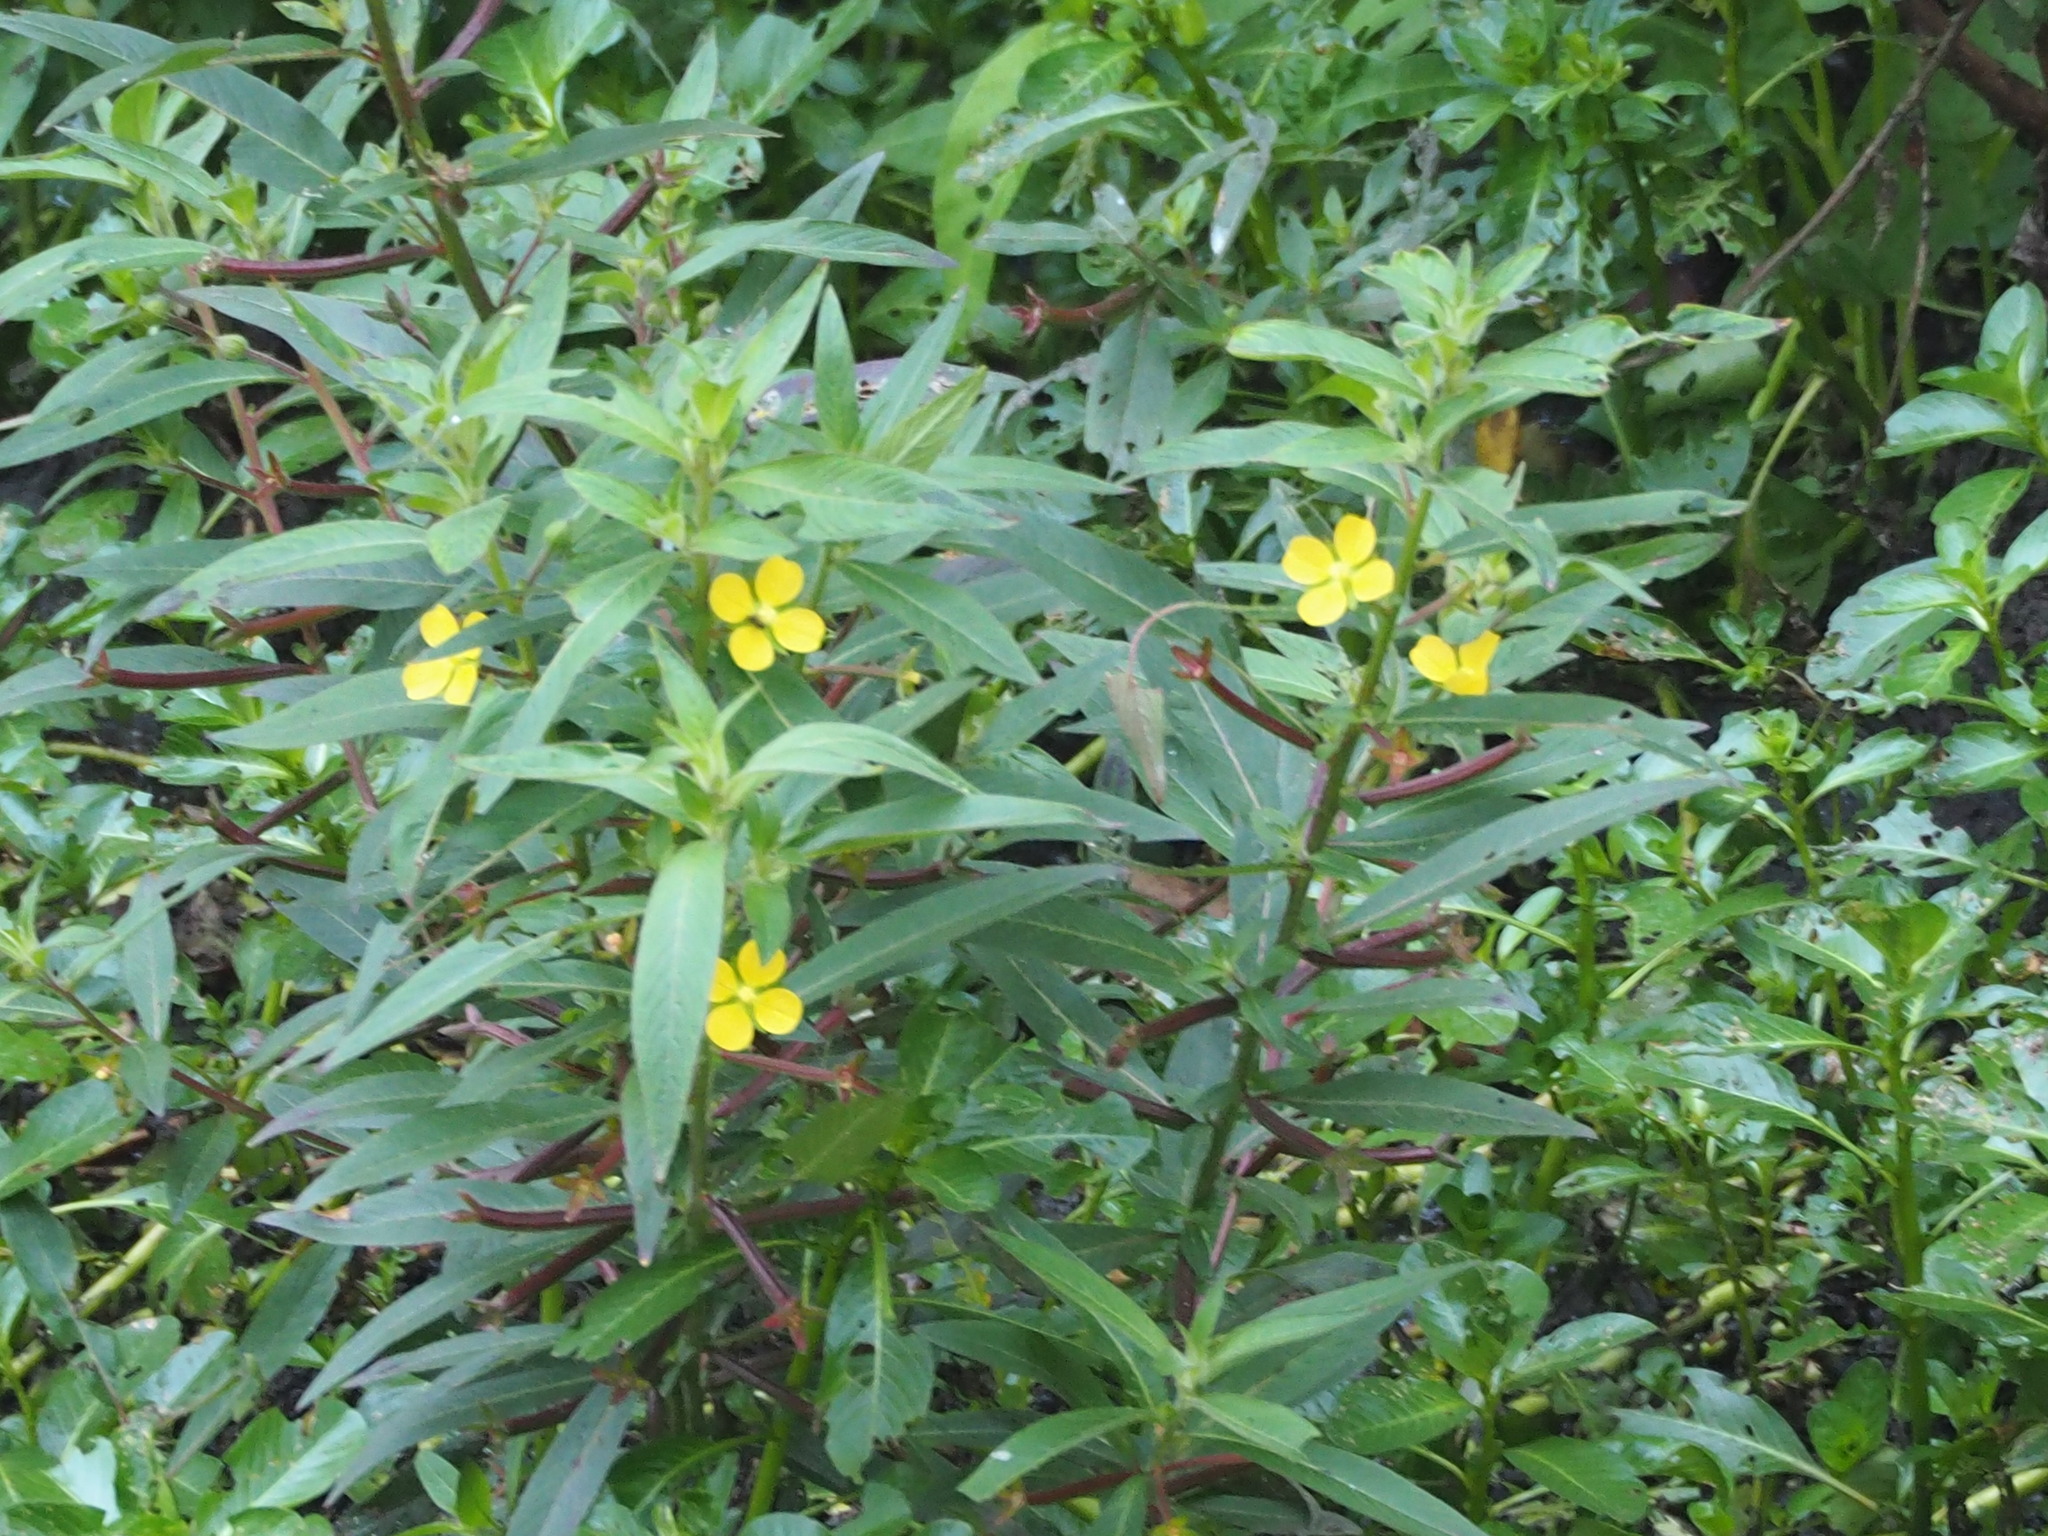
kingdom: Plantae
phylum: Tracheophyta
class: Magnoliopsida
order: Myrtales
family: Onagraceae
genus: Ludwigia
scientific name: Ludwigia octovalvis
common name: Water-primrose
